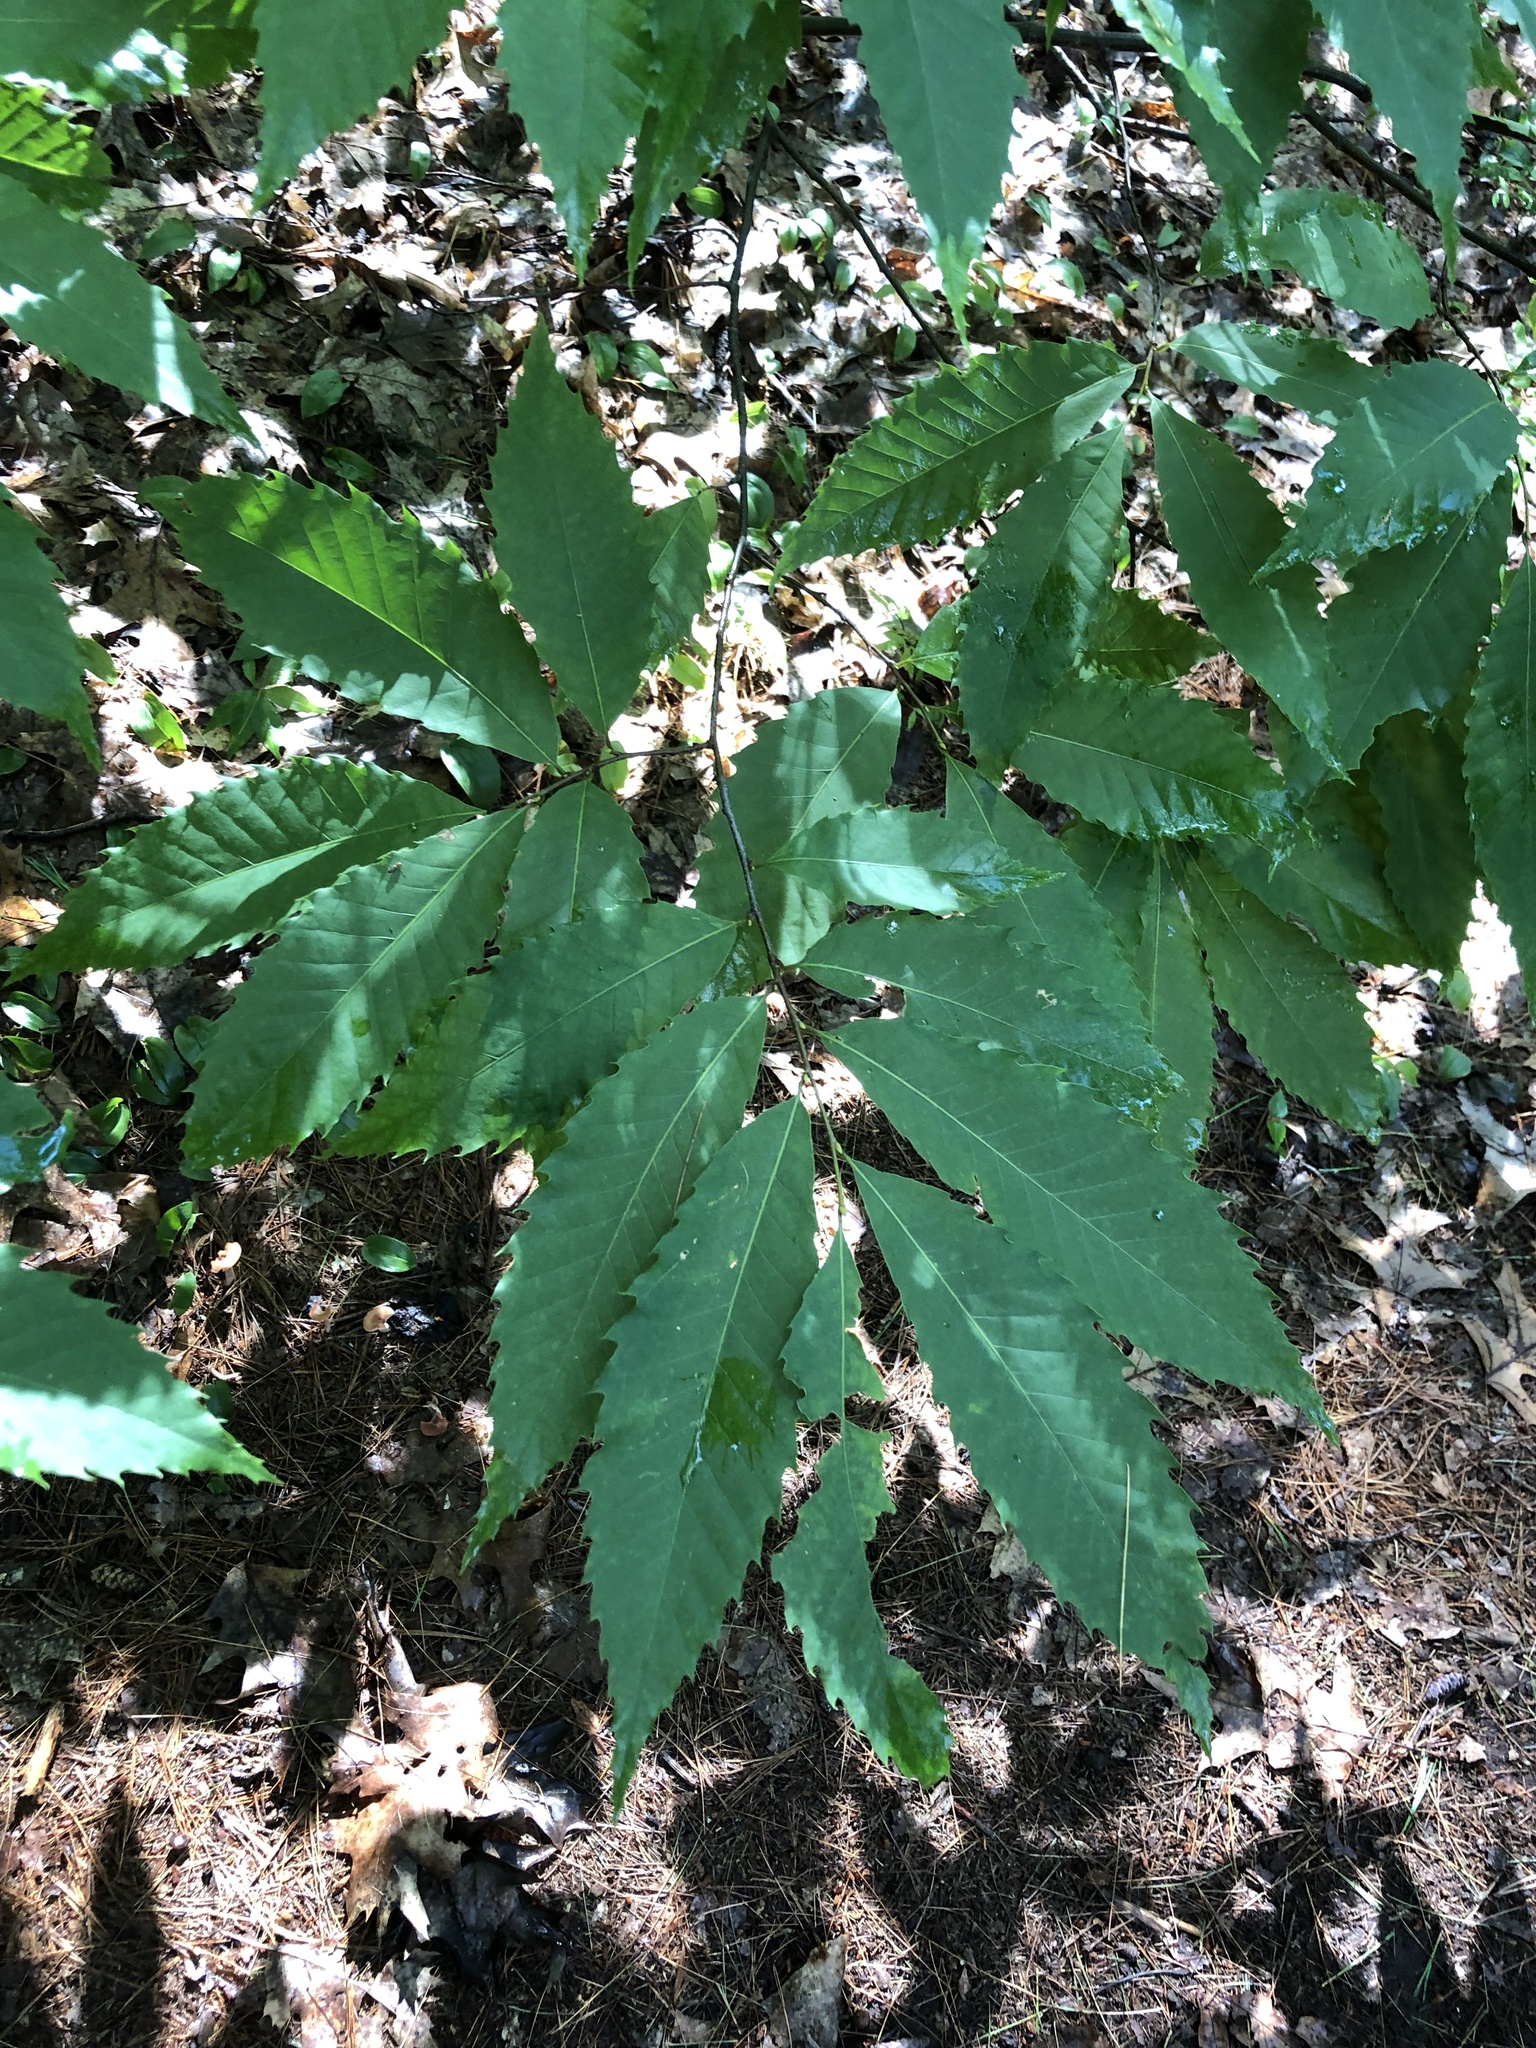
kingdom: Plantae
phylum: Tracheophyta
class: Magnoliopsida
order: Fagales
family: Fagaceae
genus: Castanea
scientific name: Castanea dentata
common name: American chestnut
